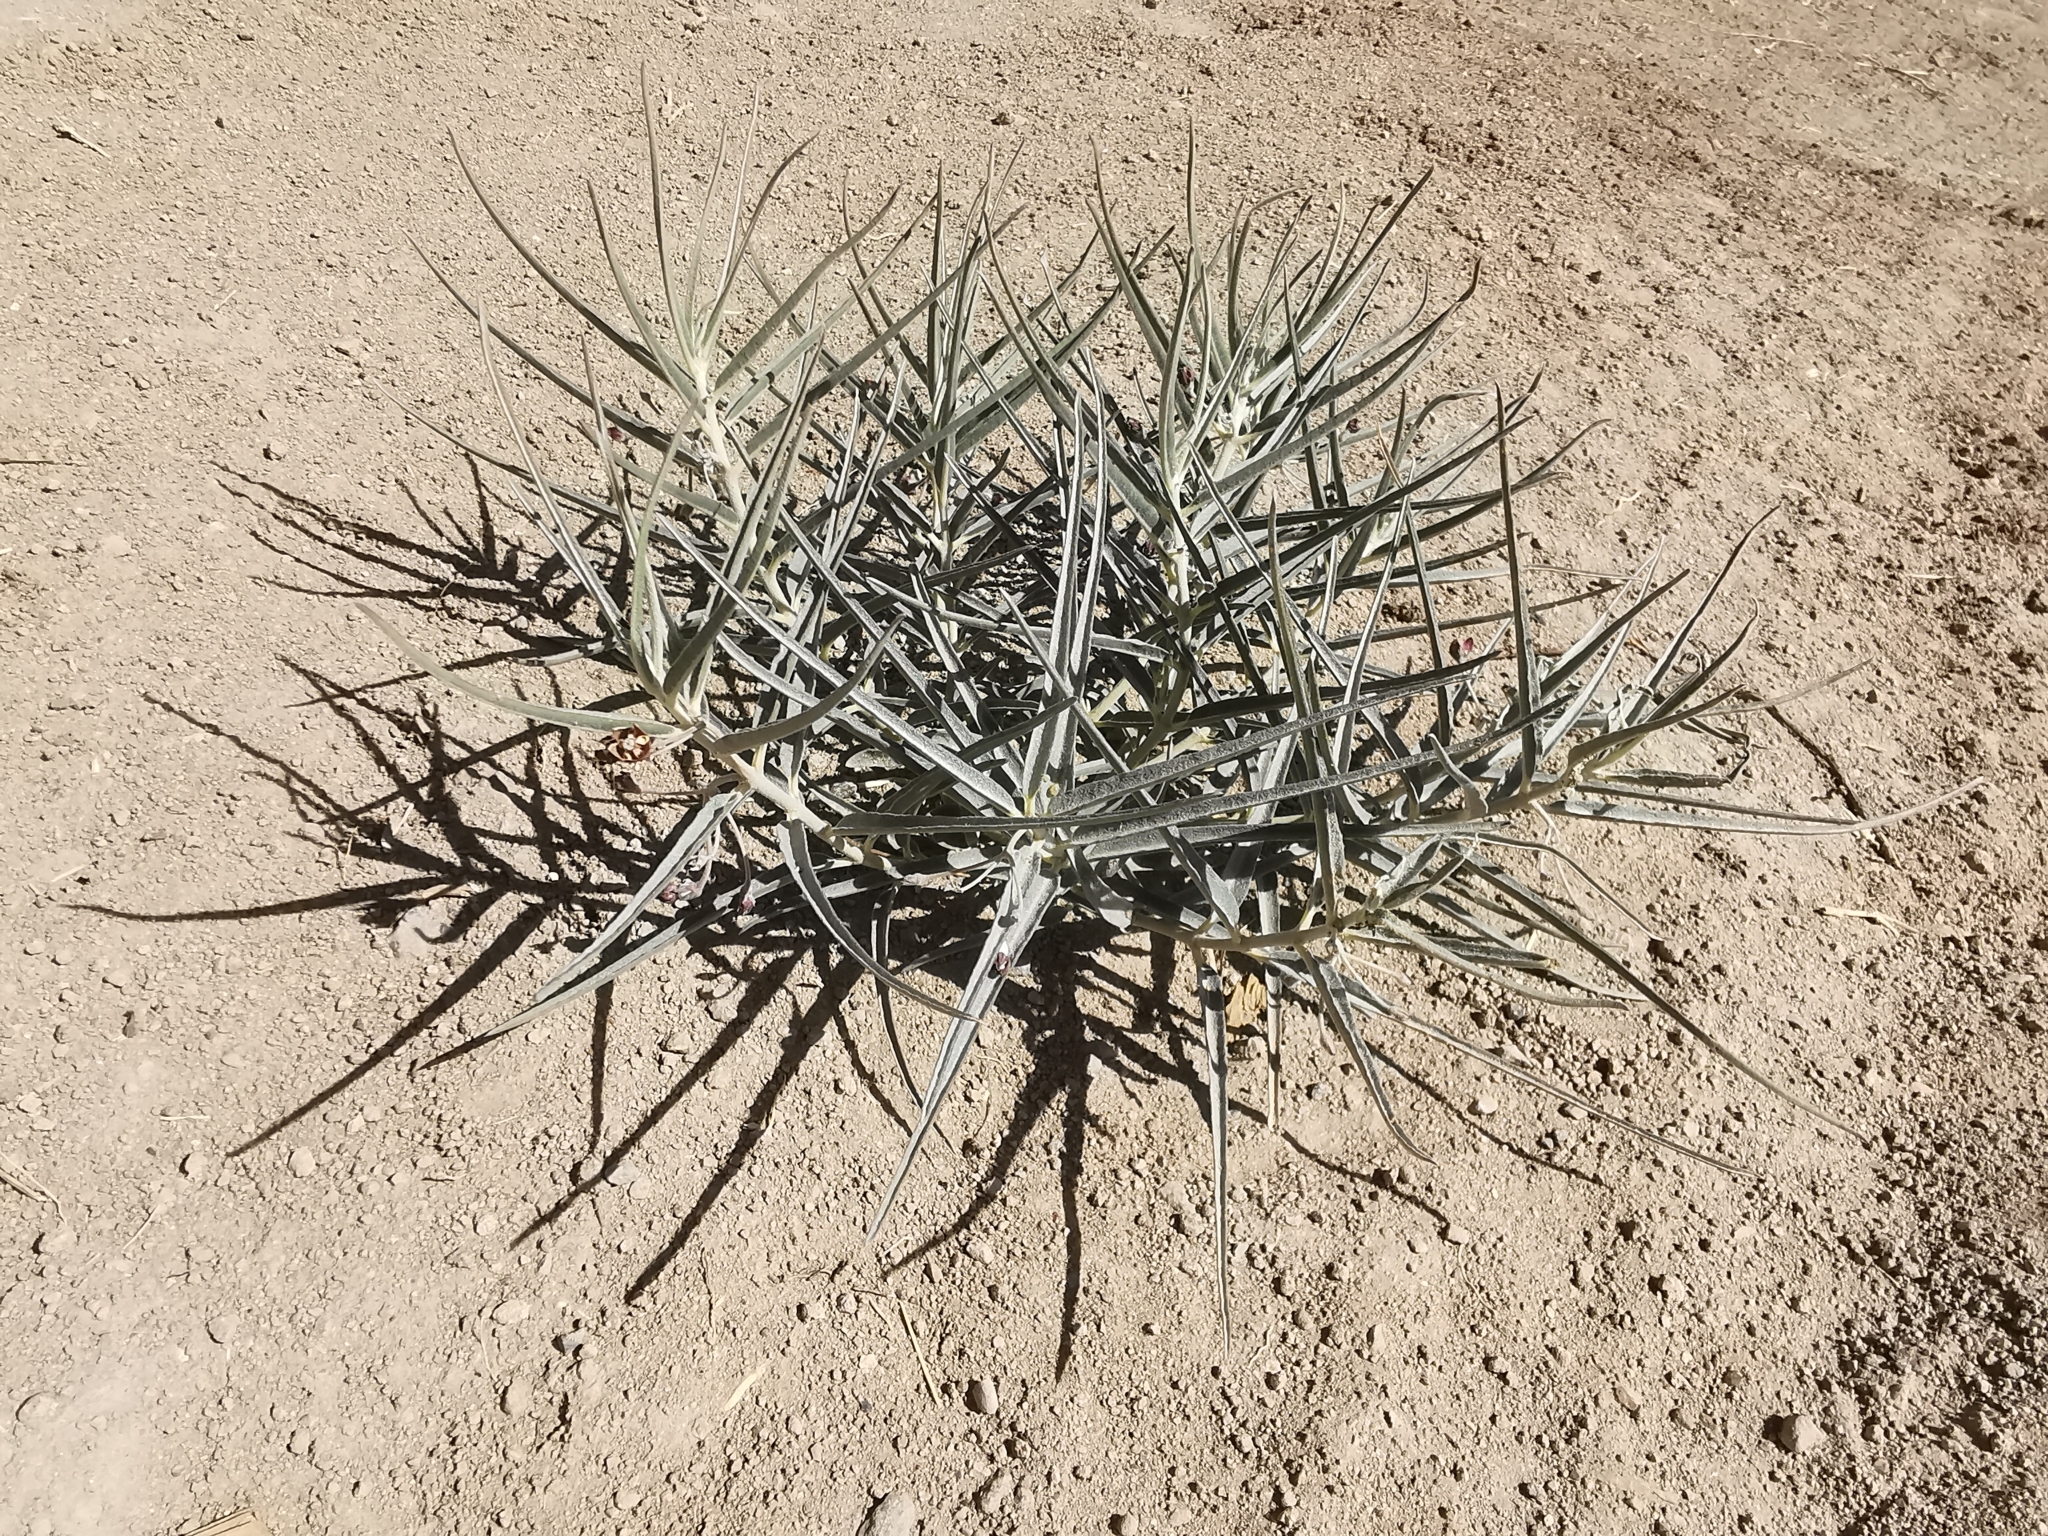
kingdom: Plantae
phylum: Tracheophyta
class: Magnoliopsida
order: Gentianales
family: Apocynaceae
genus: Asclepias
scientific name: Asclepias brachystephana
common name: Shortcrown milkweed
